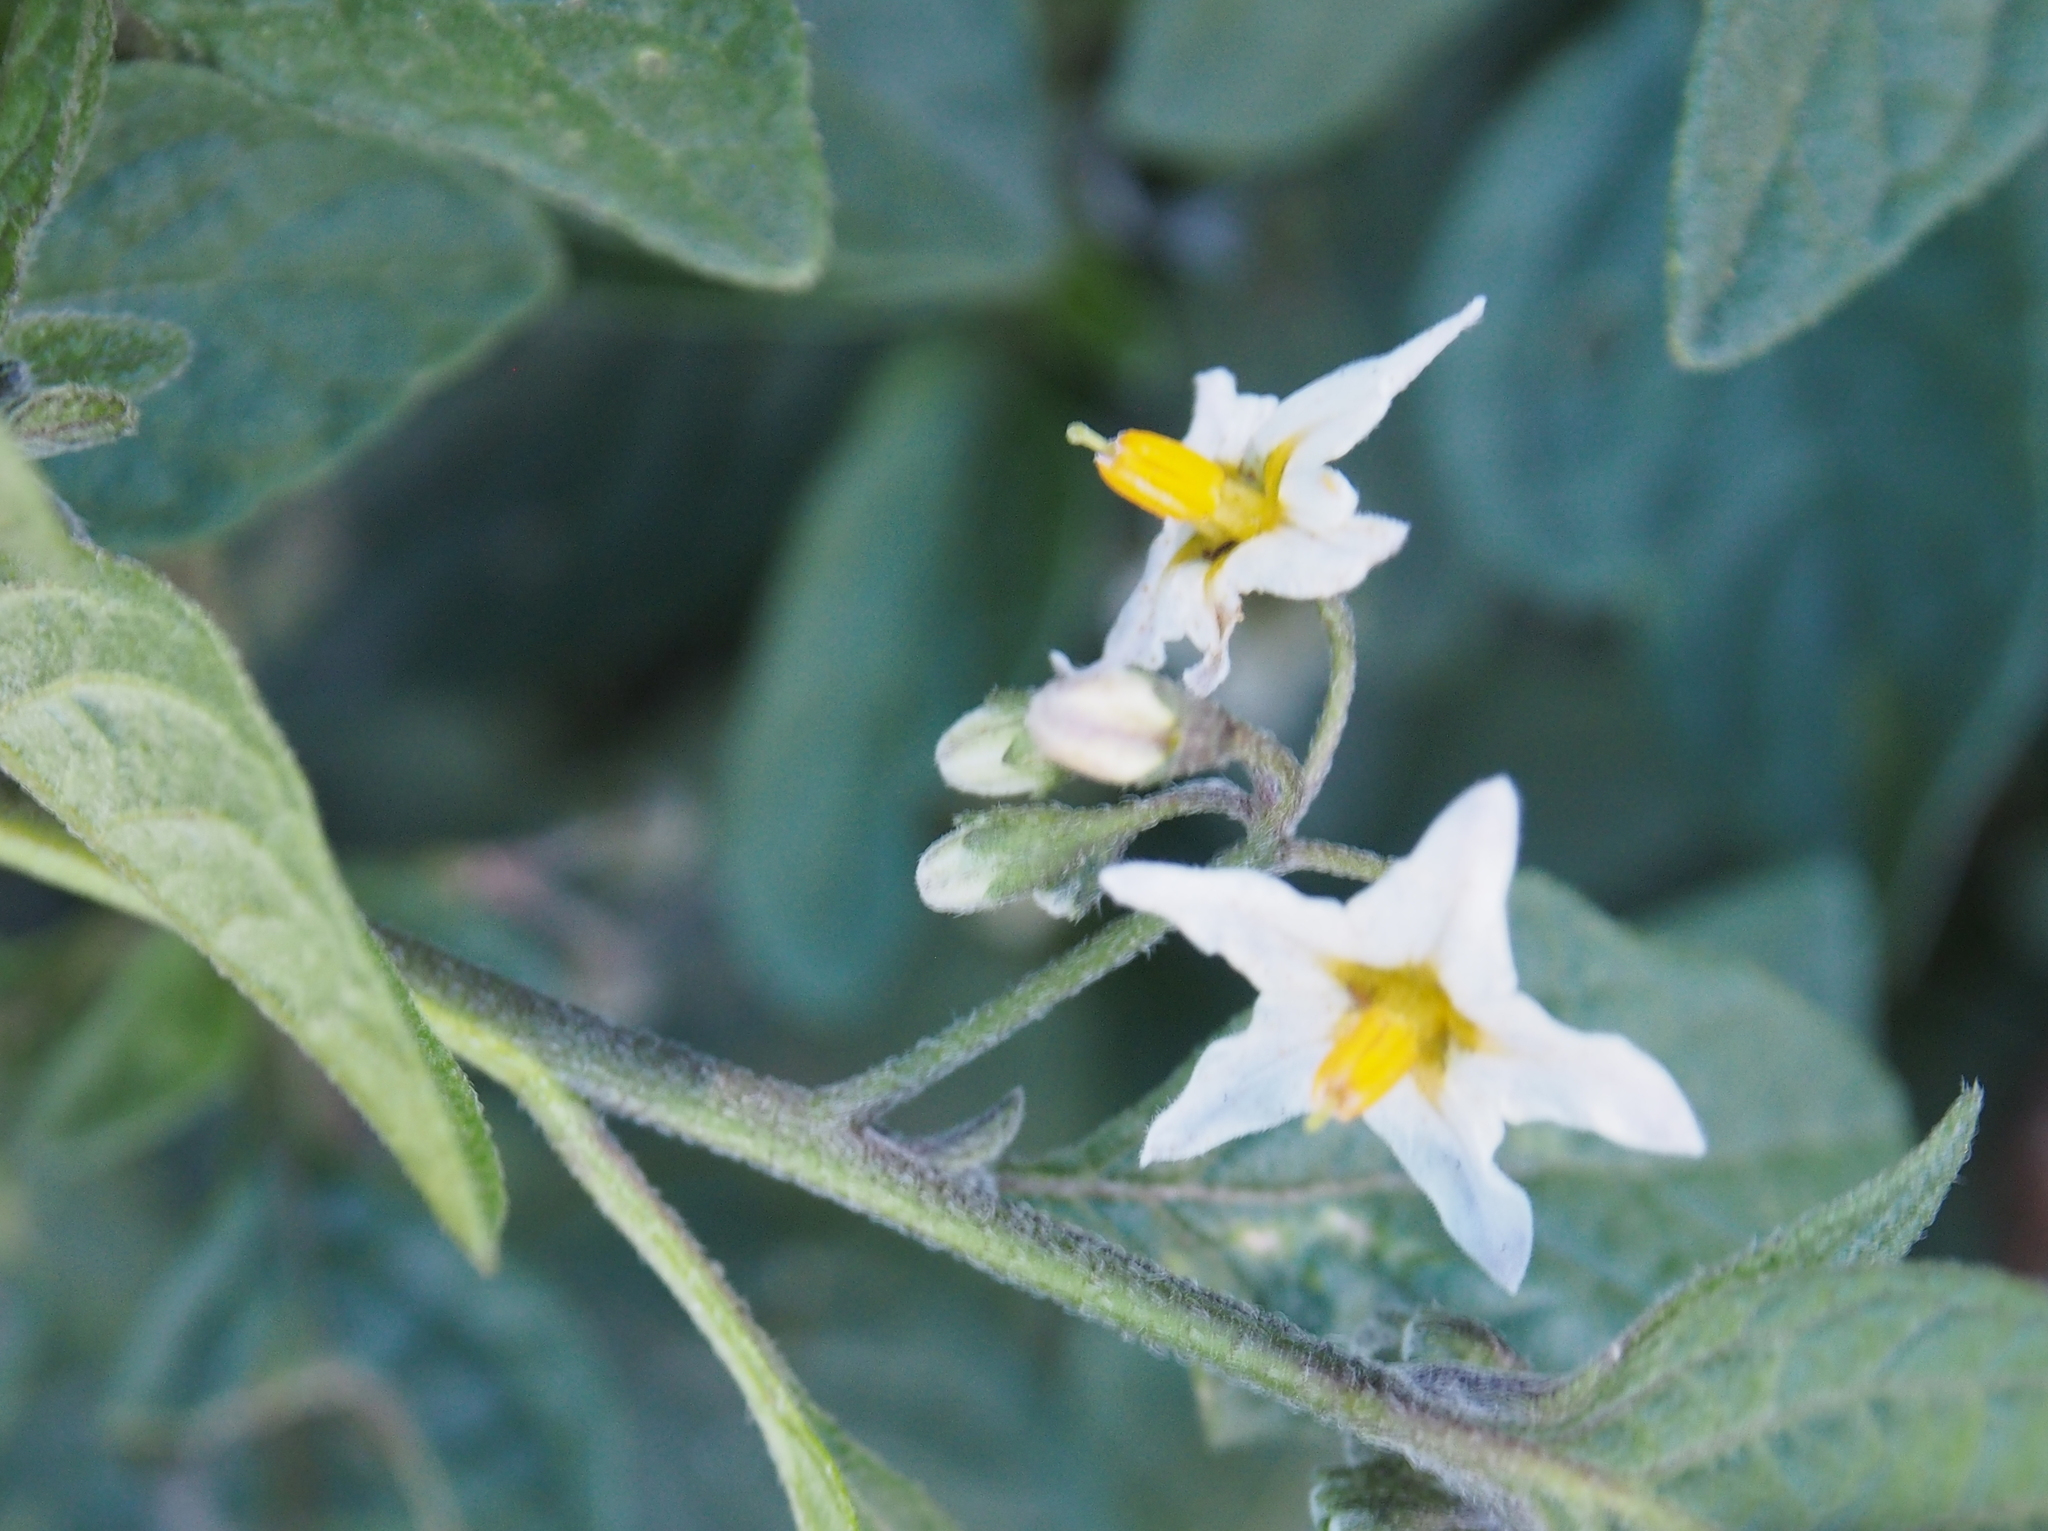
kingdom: Plantae
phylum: Tracheophyta
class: Magnoliopsida
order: Solanales
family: Solanaceae
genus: Solanum
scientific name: Solanum nigrescens
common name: Divine nightshade
